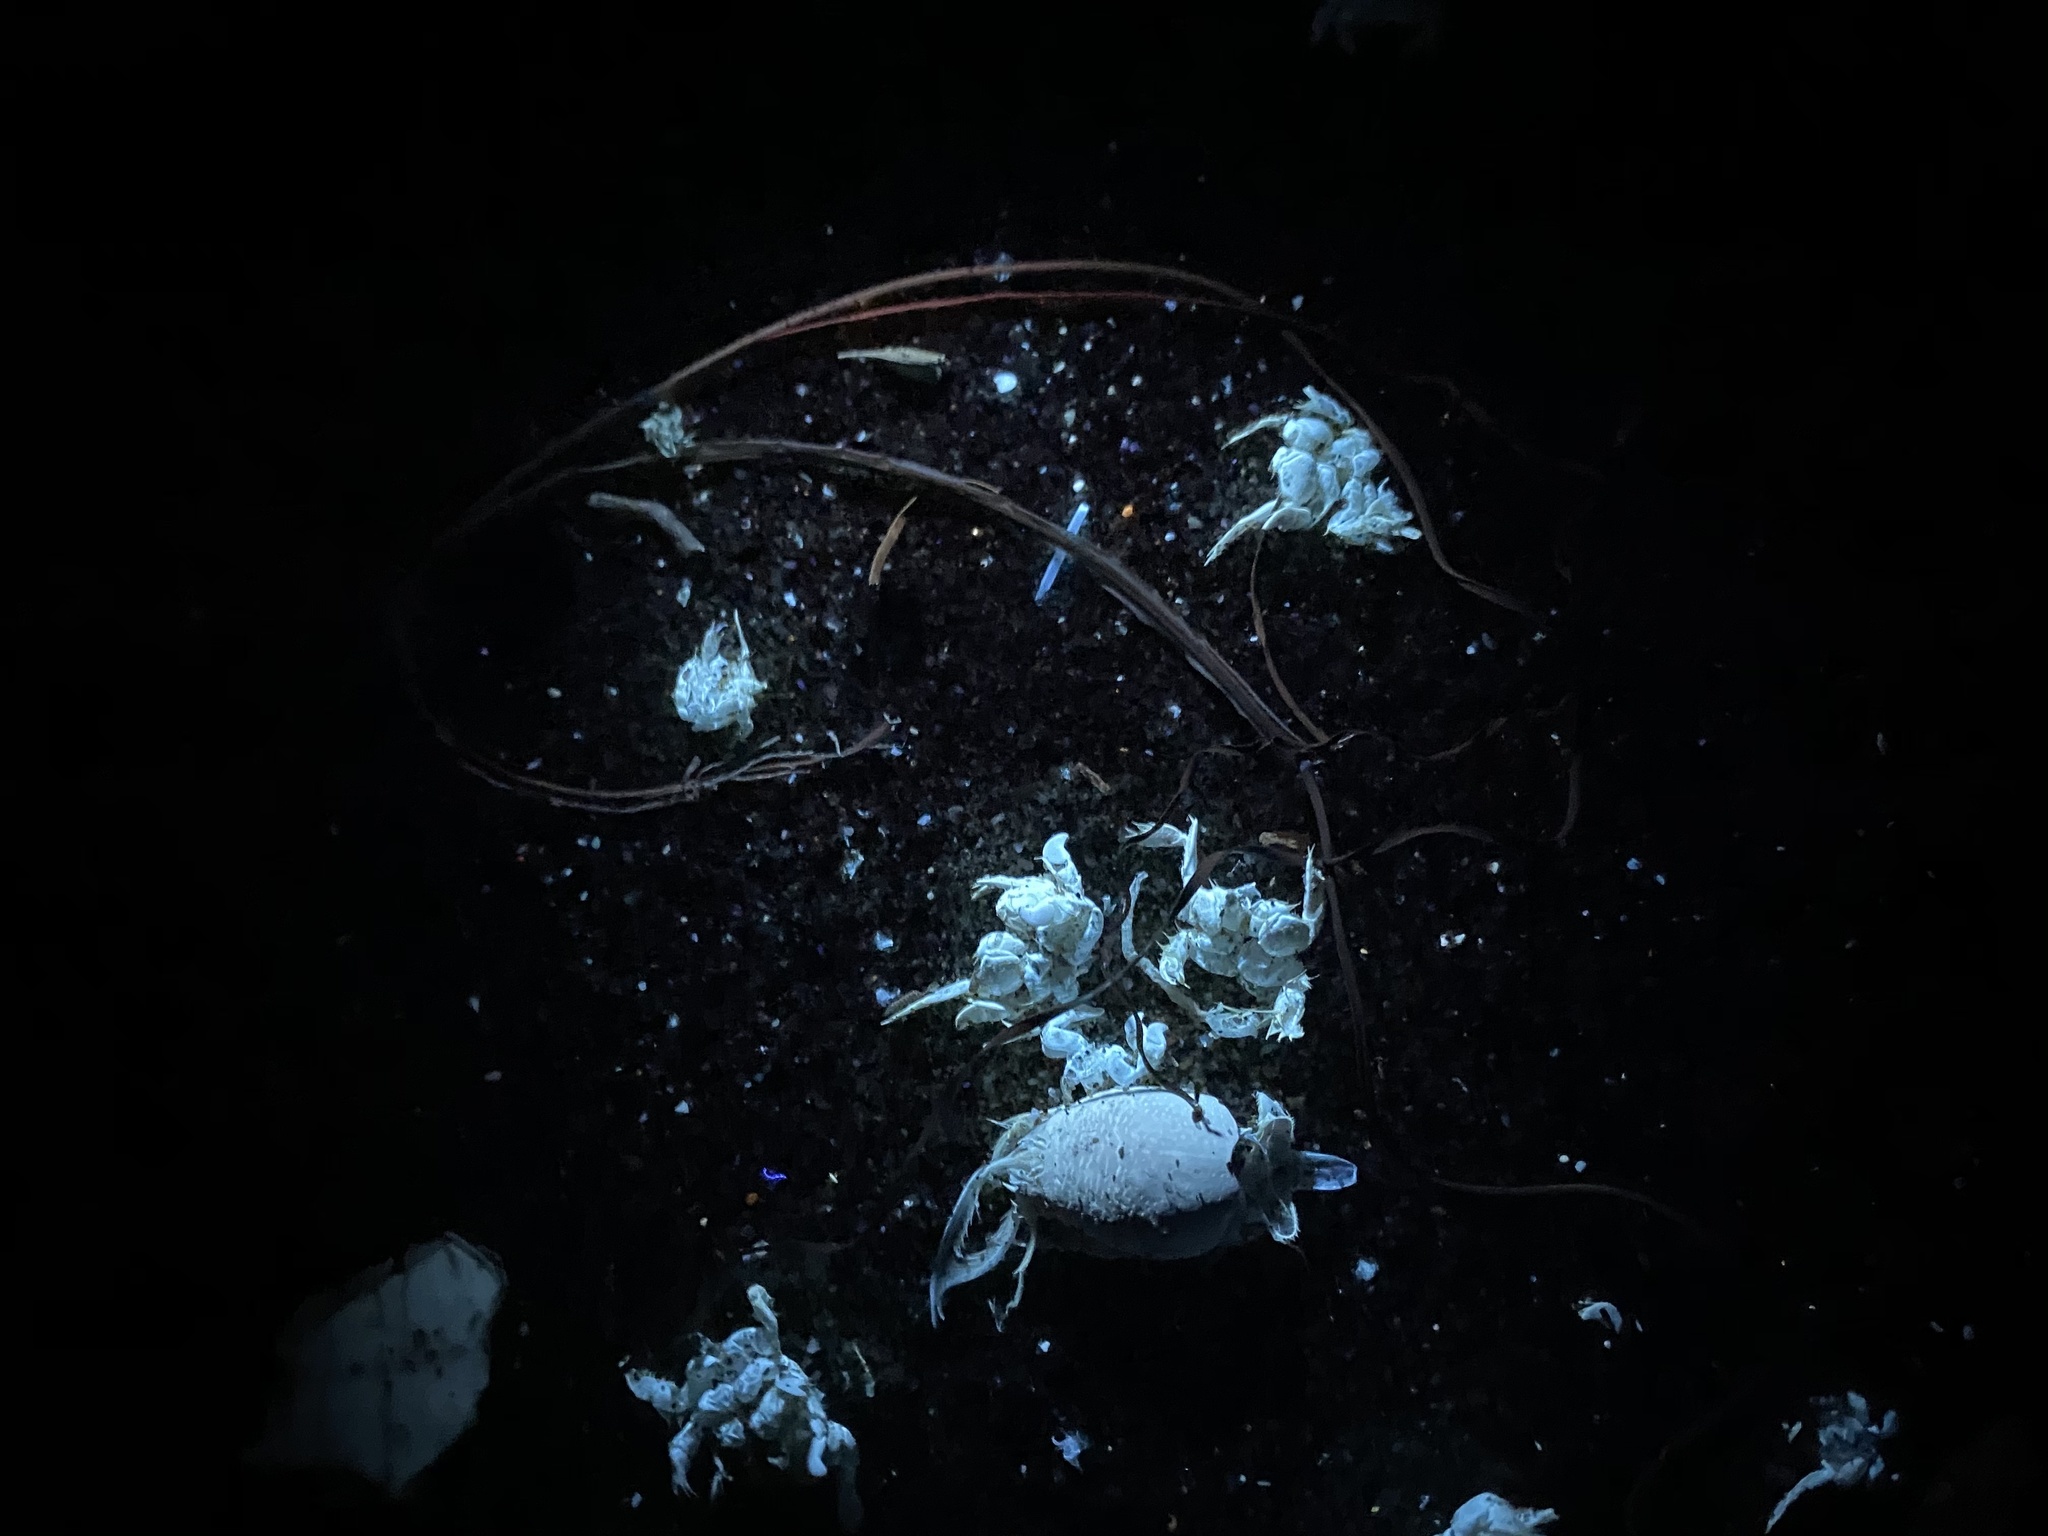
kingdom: Animalia
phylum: Arthropoda
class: Malacostraca
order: Decapoda
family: Hippidae
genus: Emerita
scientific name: Emerita analoga
